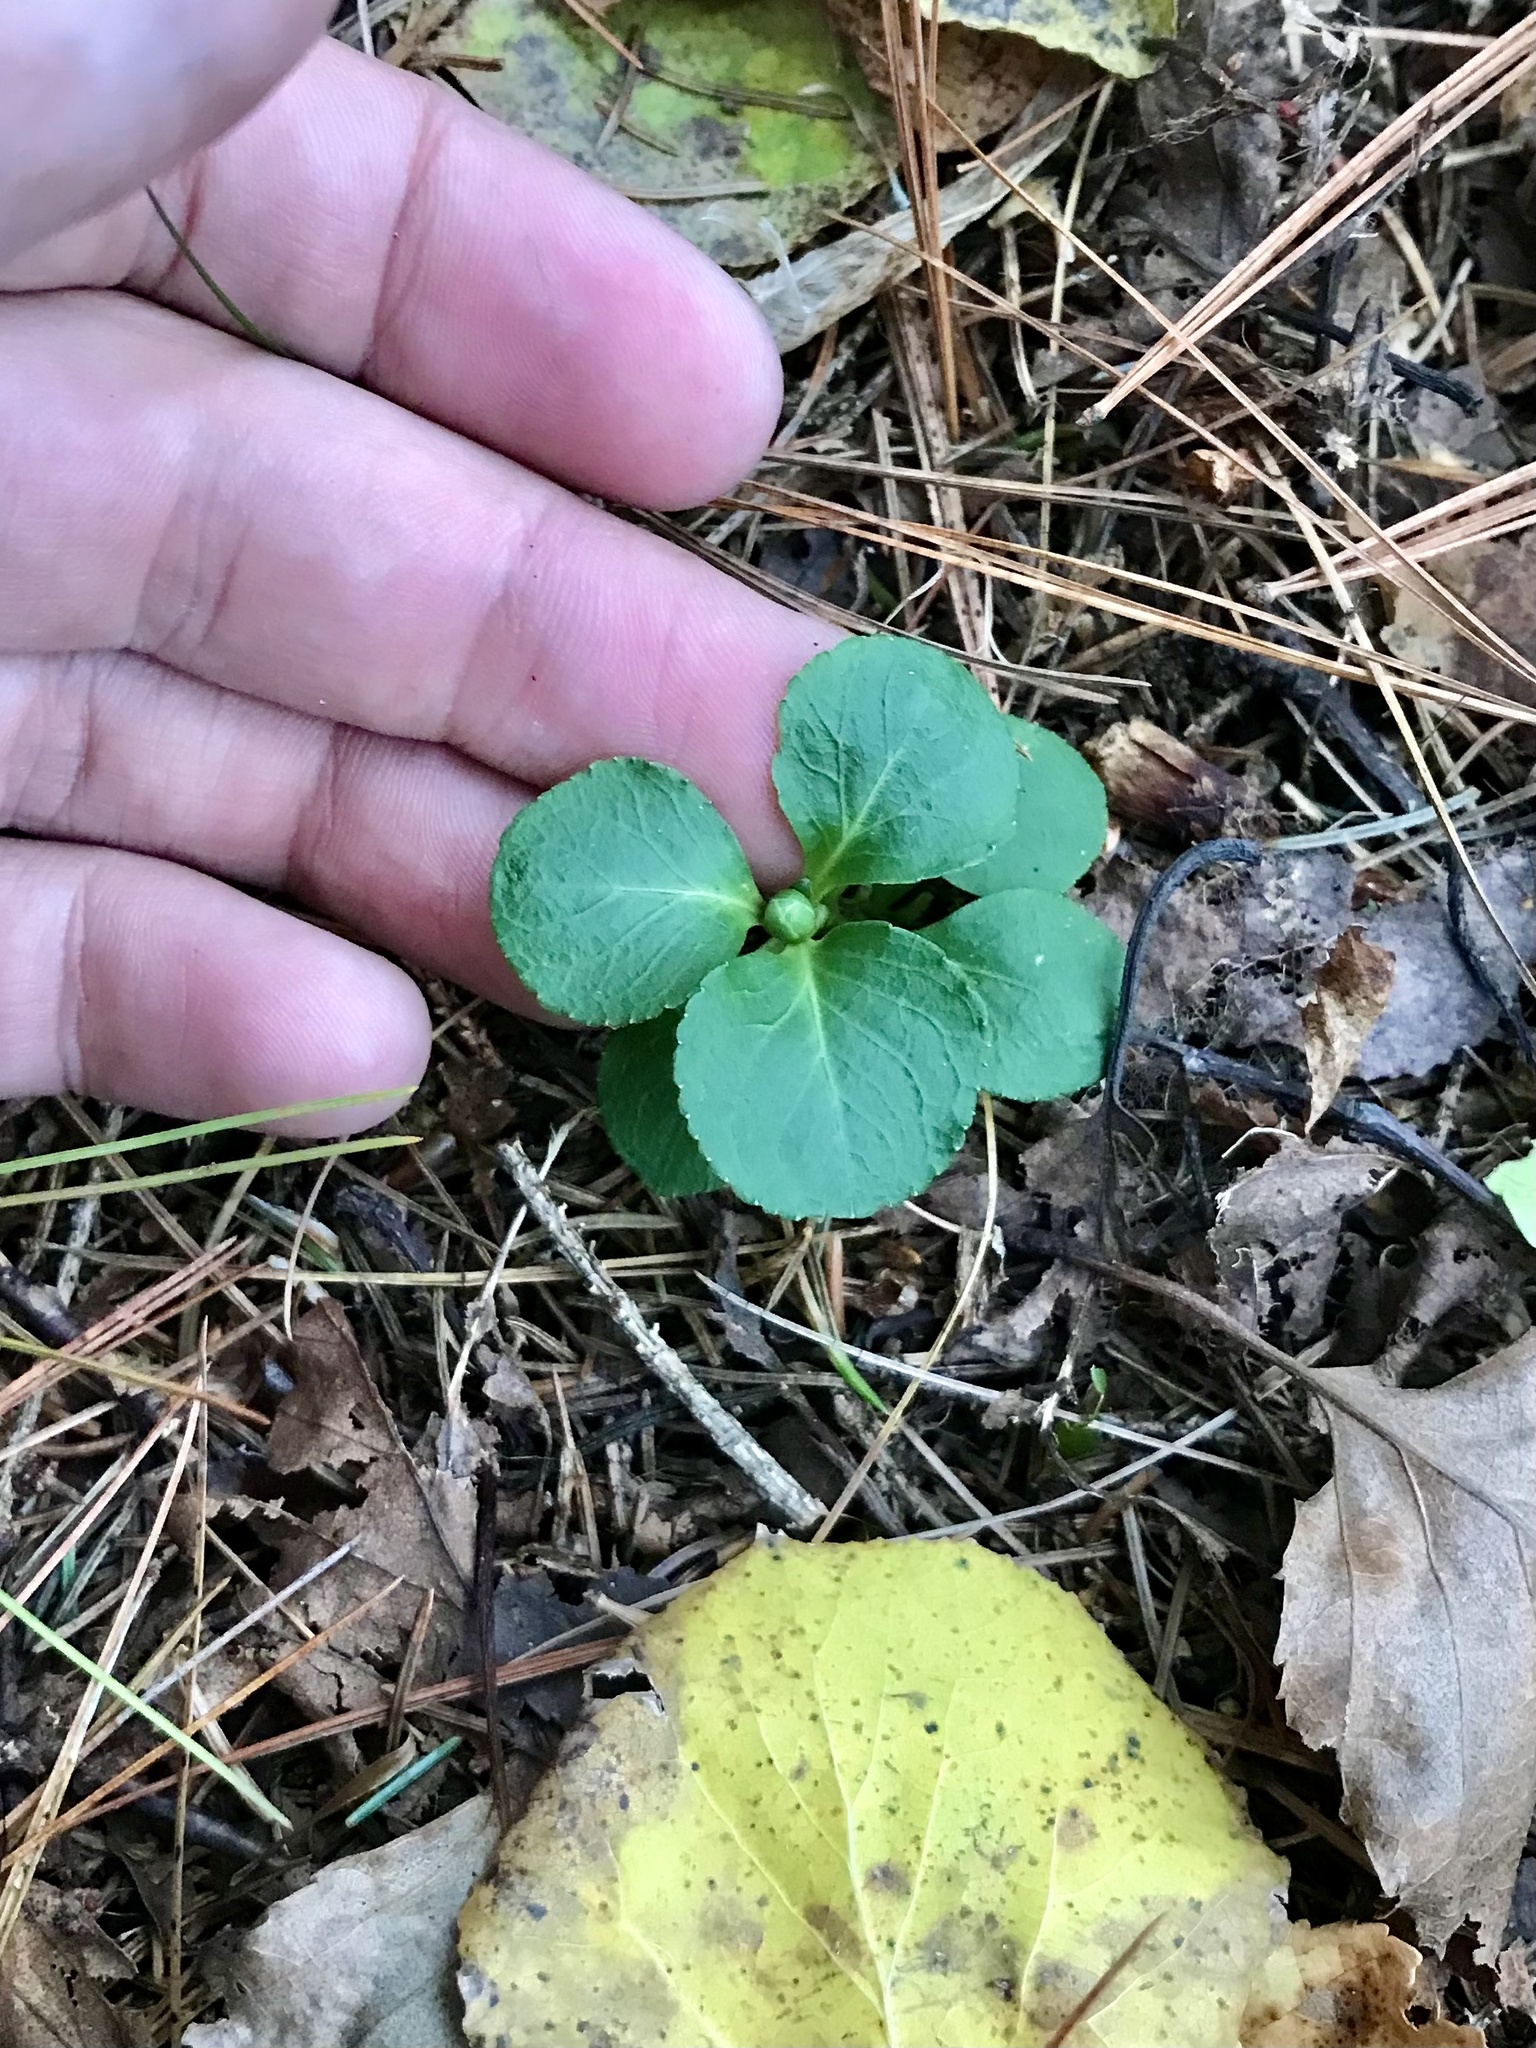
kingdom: Plantae
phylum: Tracheophyta
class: Magnoliopsida
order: Ericales
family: Ericaceae
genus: Moneses
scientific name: Moneses uniflora
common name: One-flowered wintergreen
